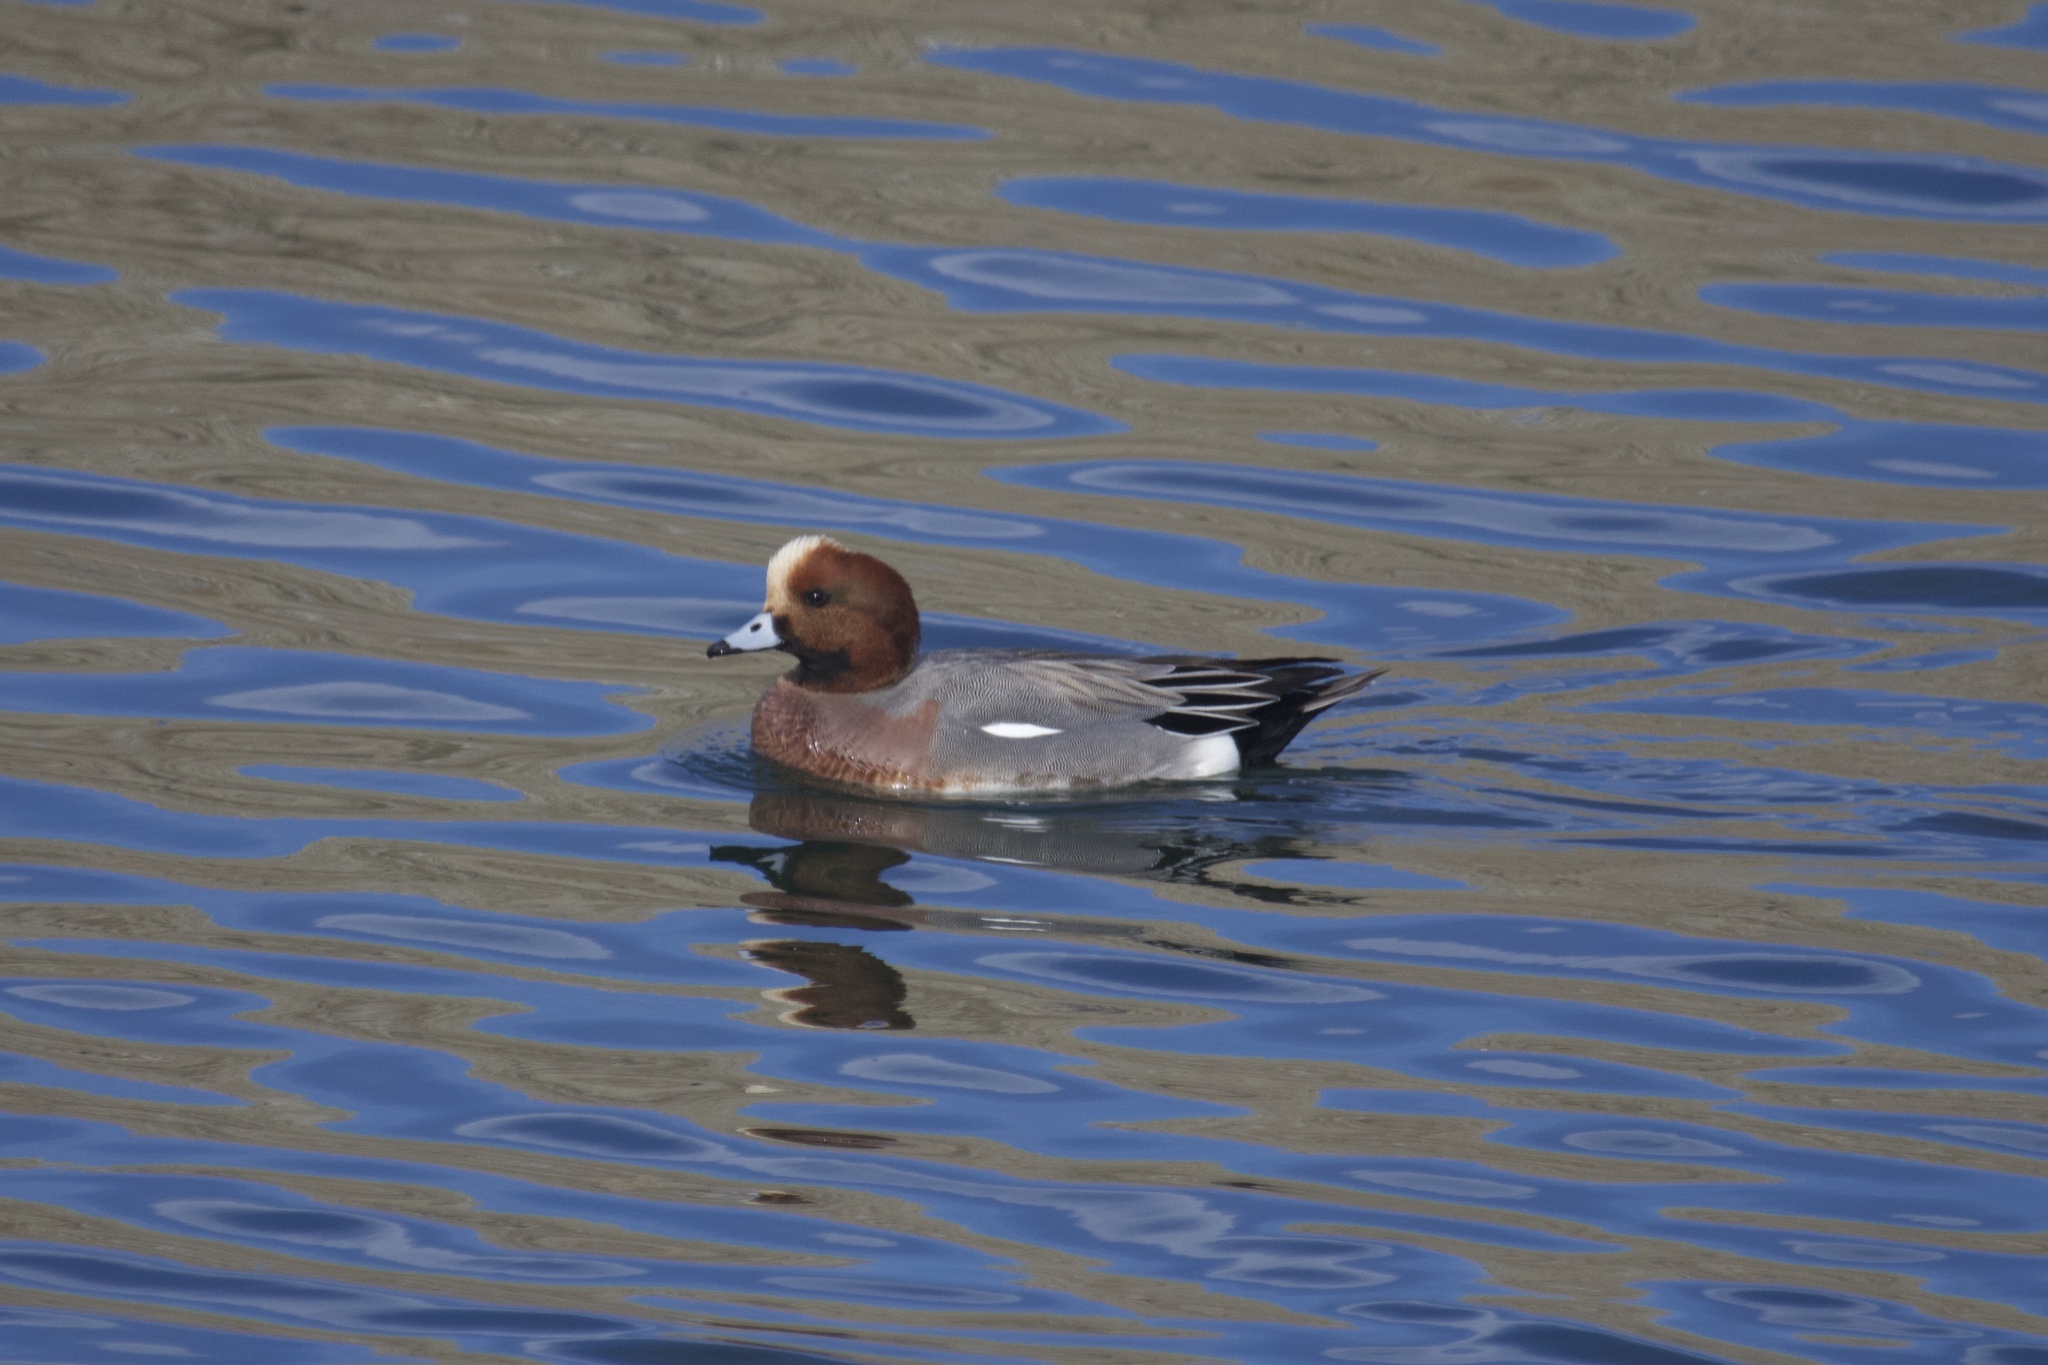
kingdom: Animalia
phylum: Chordata
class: Aves
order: Anseriformes
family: Anatidae
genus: Mareca
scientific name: Mareca penelope
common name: Eurasian wigeon
